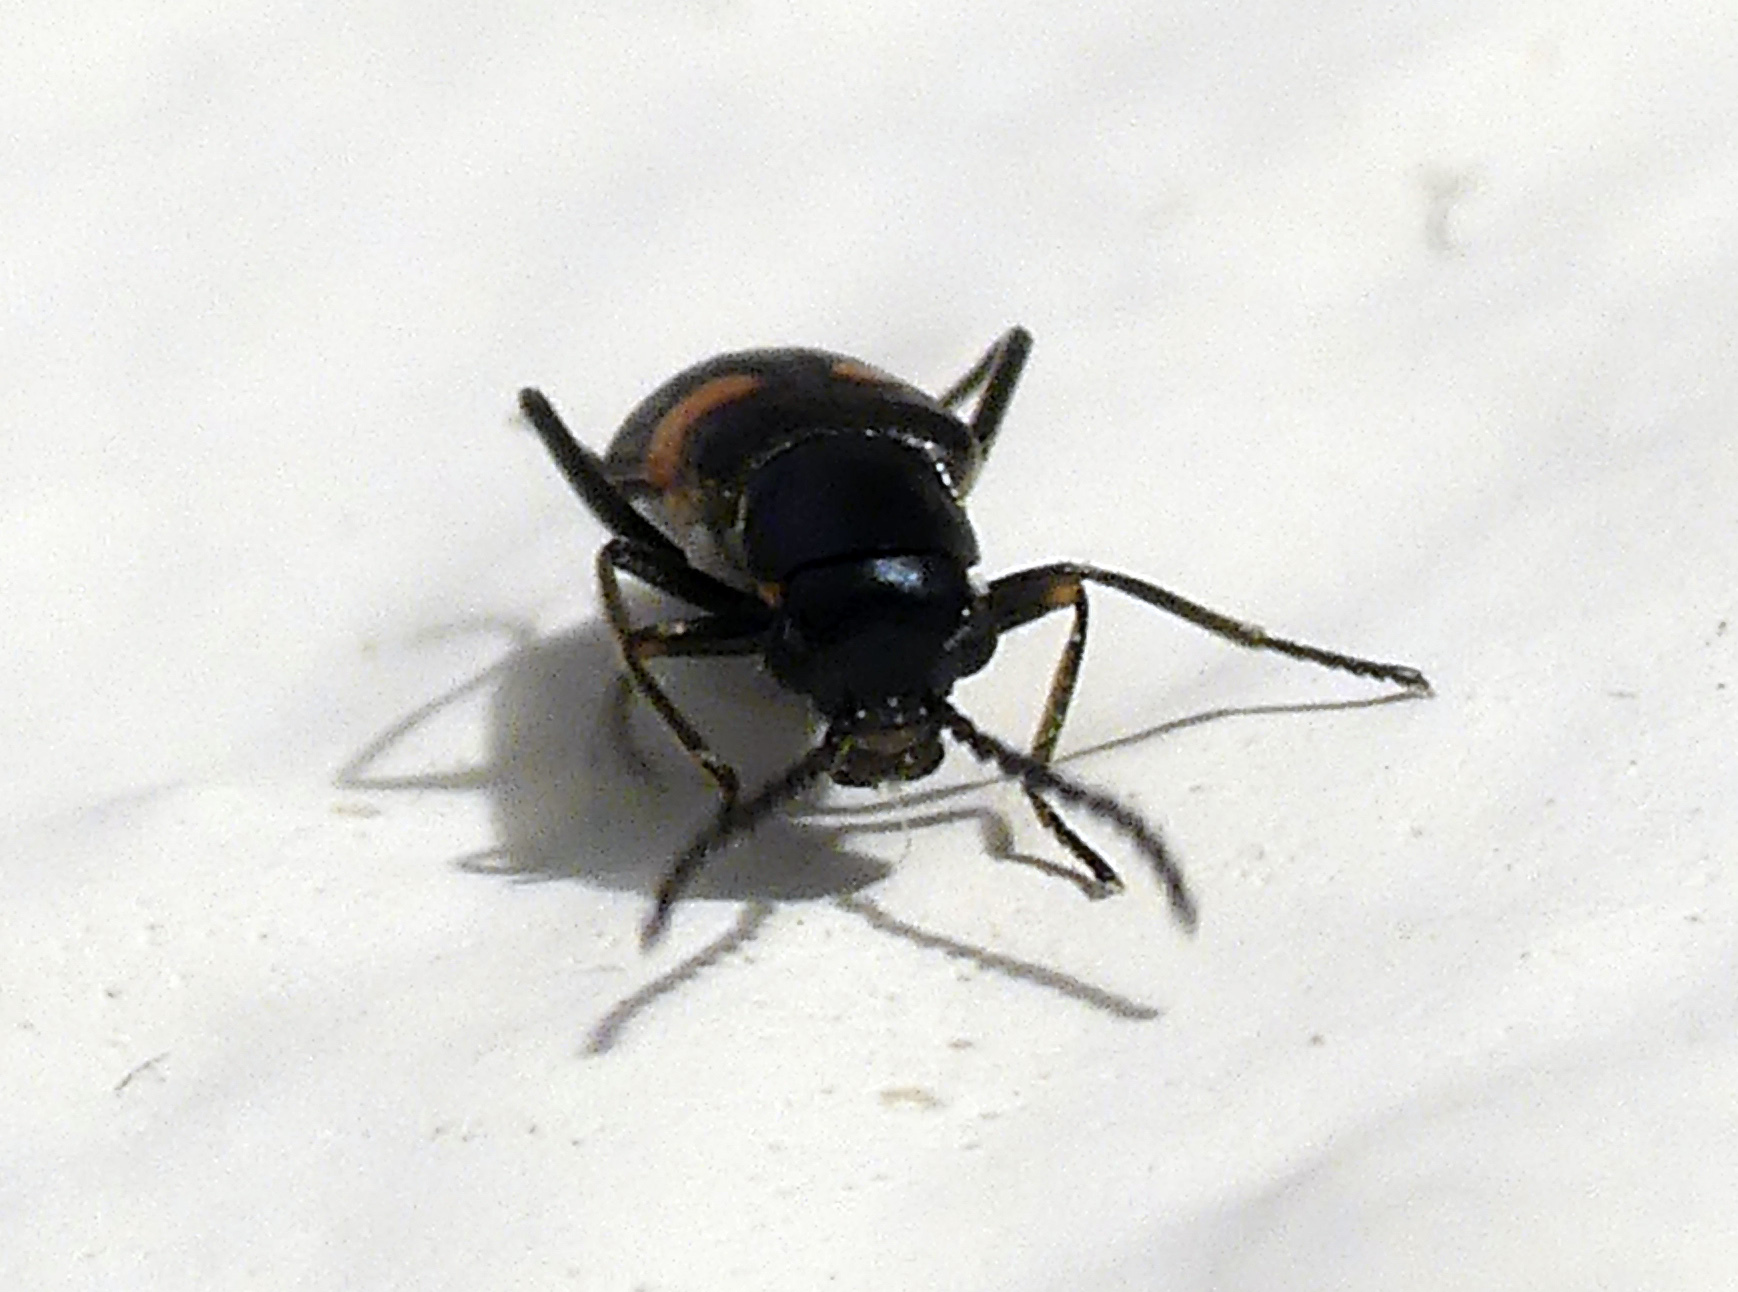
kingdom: Animalia
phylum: Arthropoda
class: Insecta
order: Coleoptera
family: Melyridae
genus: Anthocomus
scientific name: Anthocomus fasciatus
